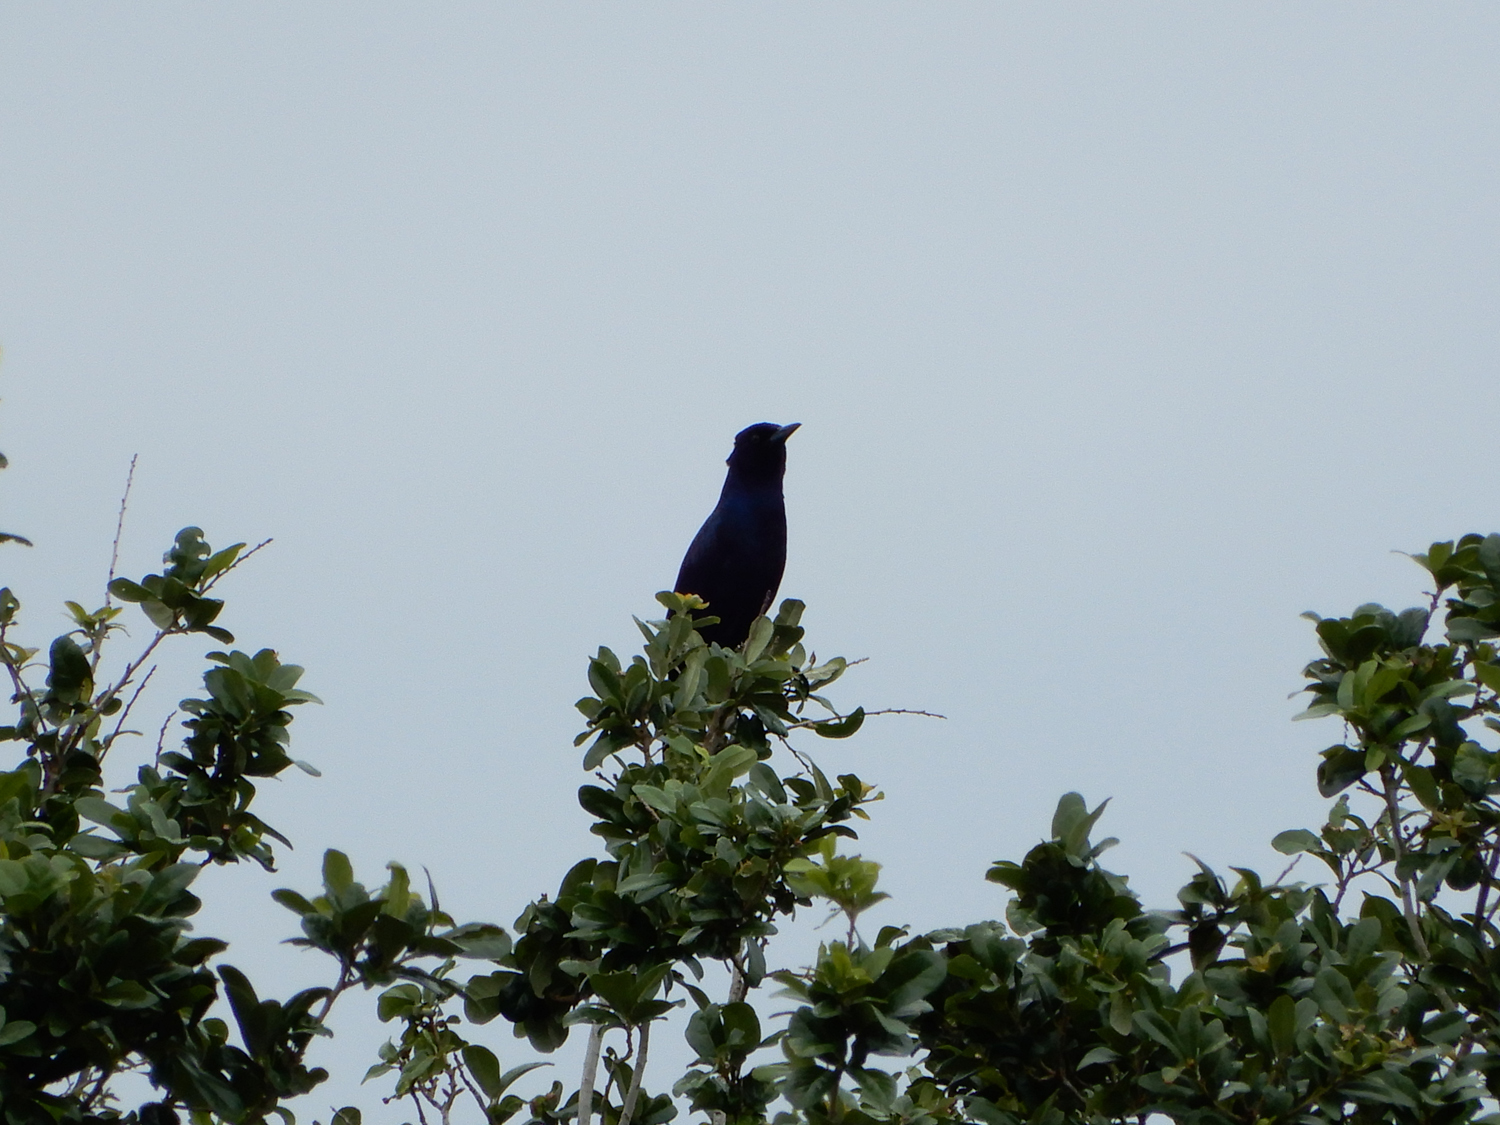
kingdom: Animalia
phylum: Chordata
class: Aves
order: Passeriformes
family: Icteridae
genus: Quiscalus
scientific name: Quiscalus major
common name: Boat-tailed grackle
